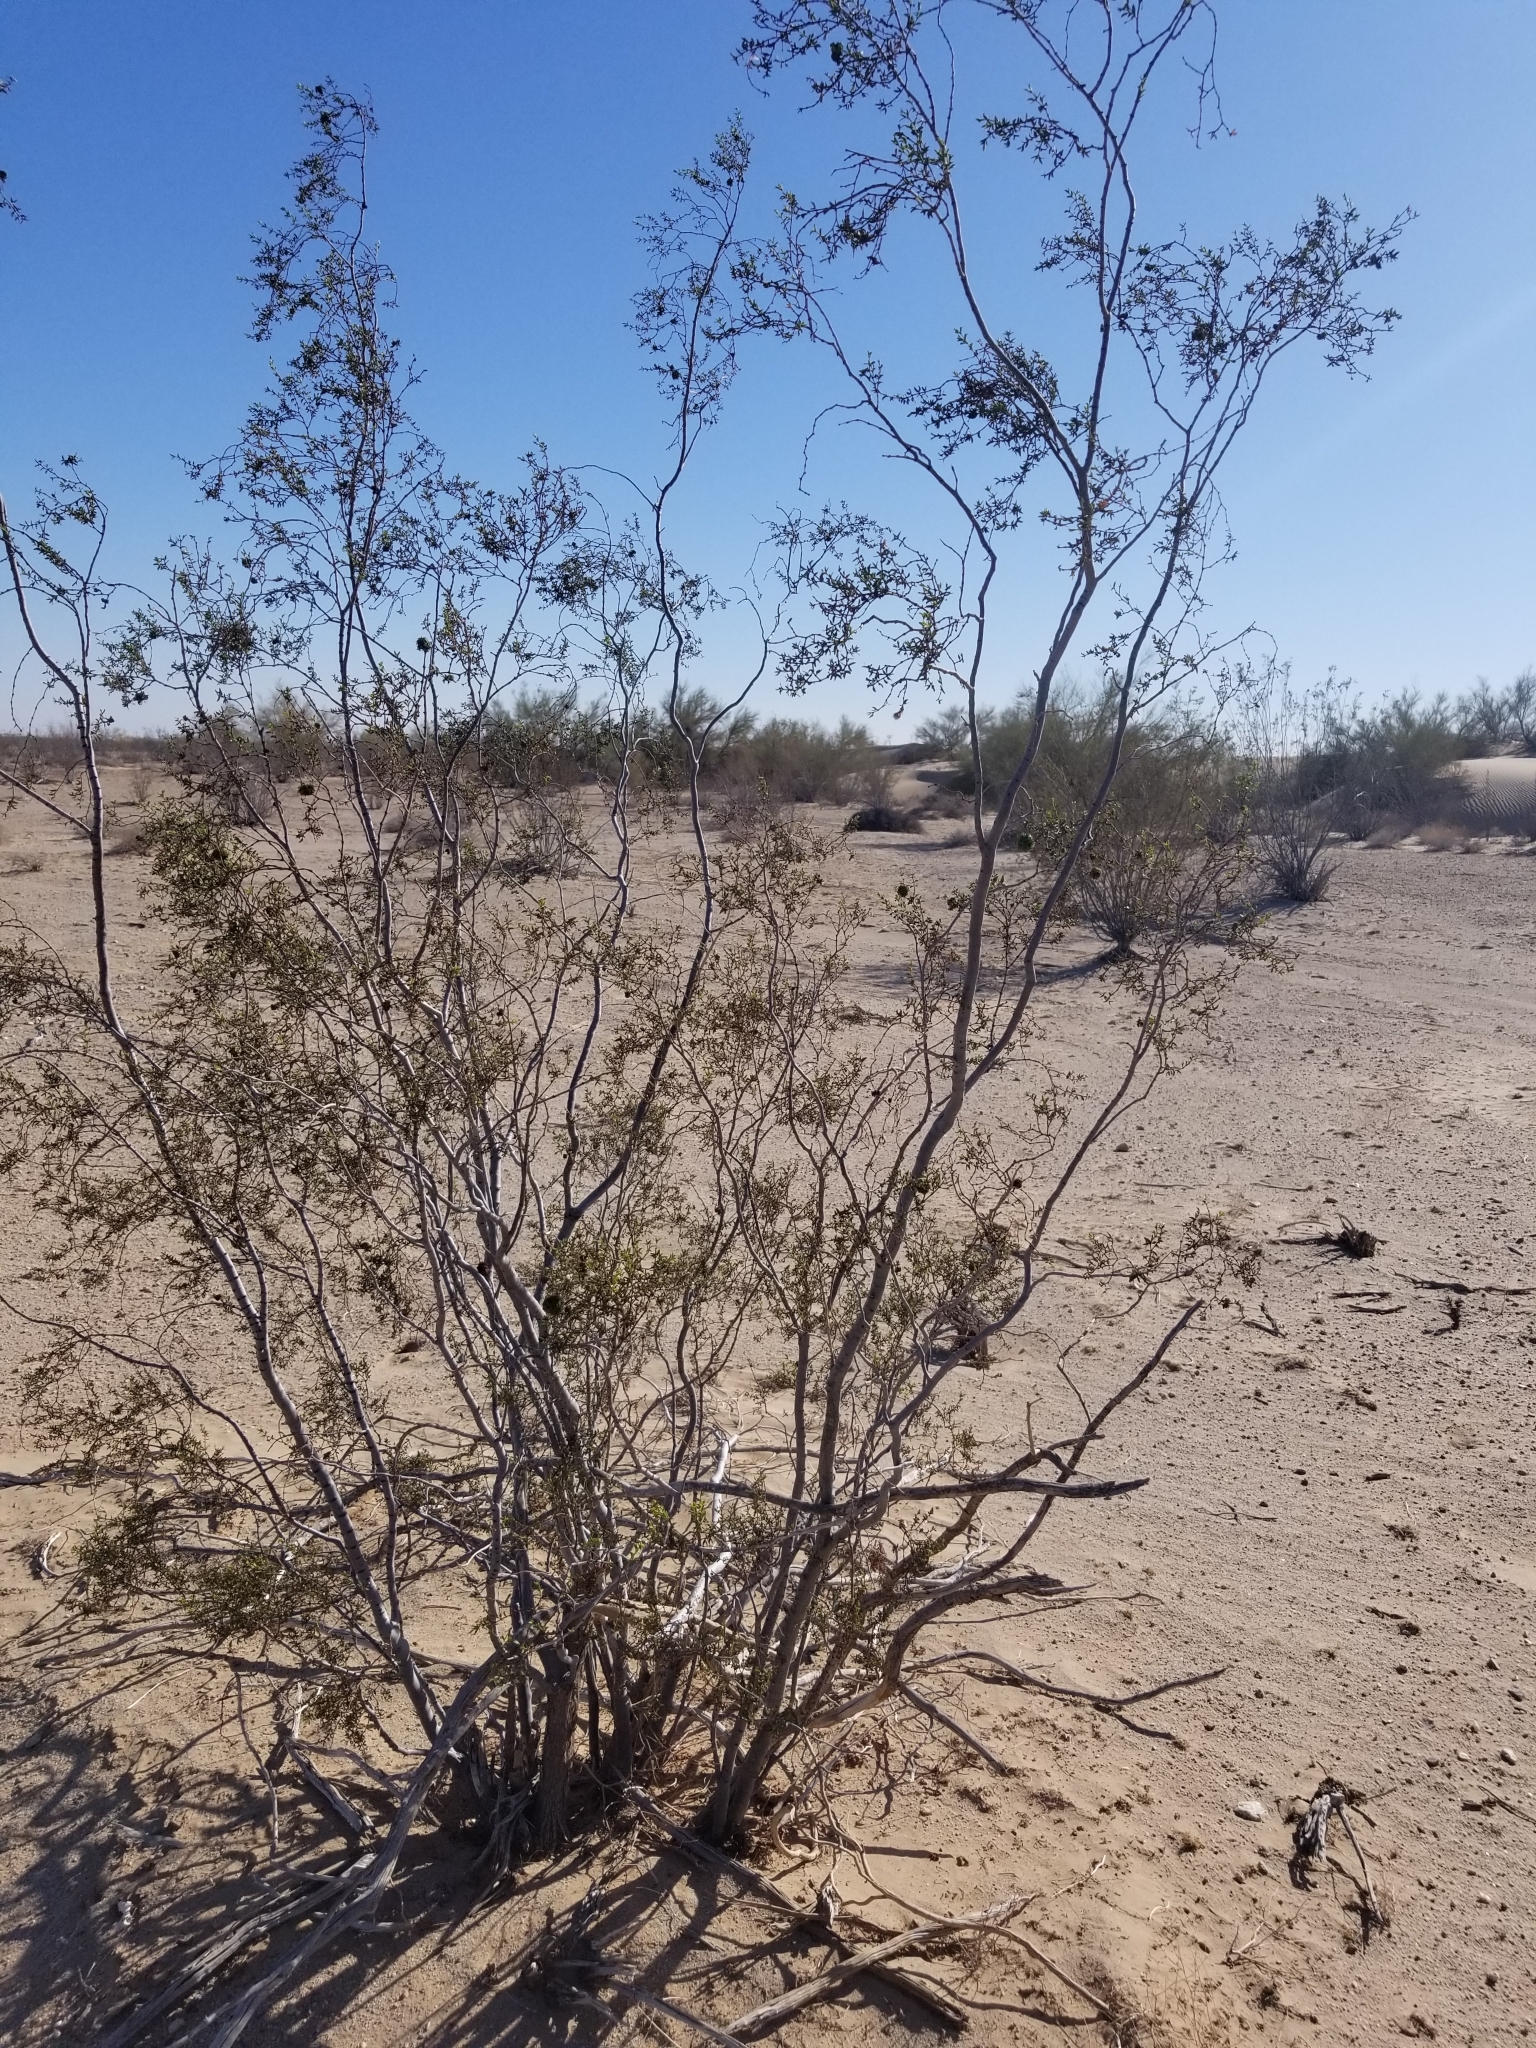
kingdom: Animalia
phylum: Arthropoda
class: Insecta
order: Diptera
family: Cecidomyiidae
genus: Asphondylia
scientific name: Asphondylia auripila
